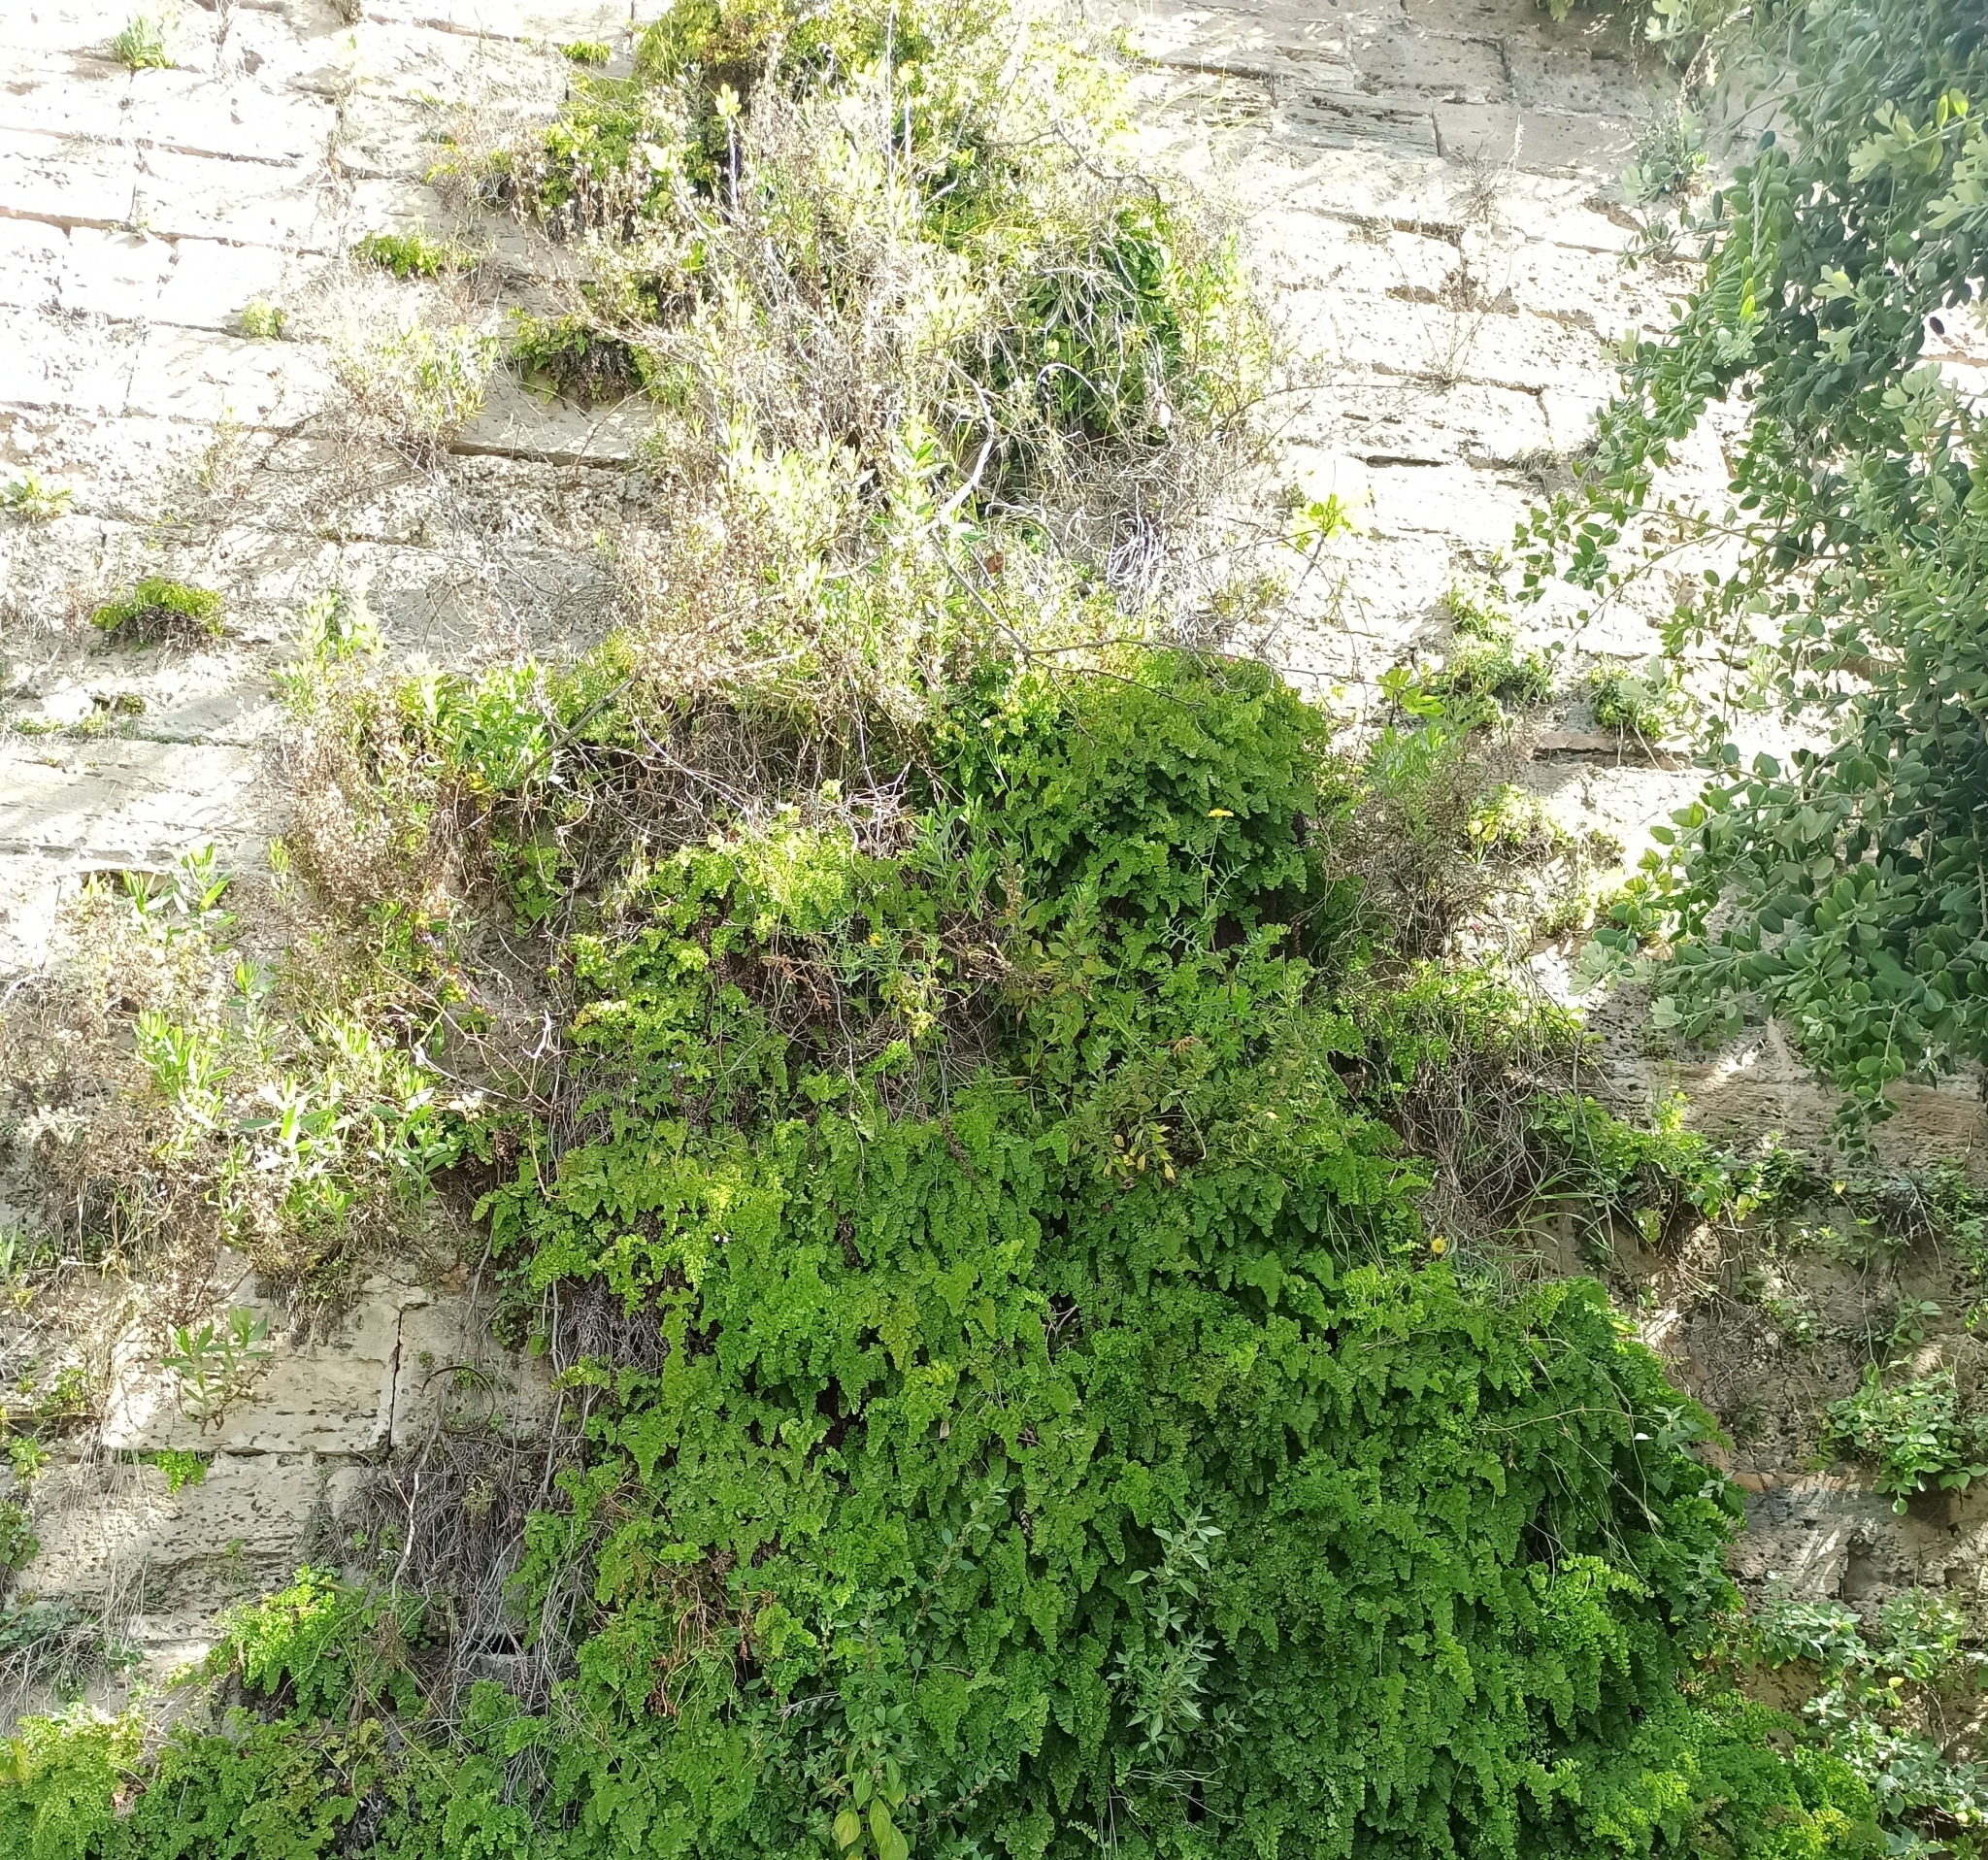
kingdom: Plantae
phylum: Tracheophyta
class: Polypodiopsida
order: Polypodiales
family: Pteridaceae
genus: Adiantum
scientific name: Adiantum capillus-veneris
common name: Maidenhair fern
